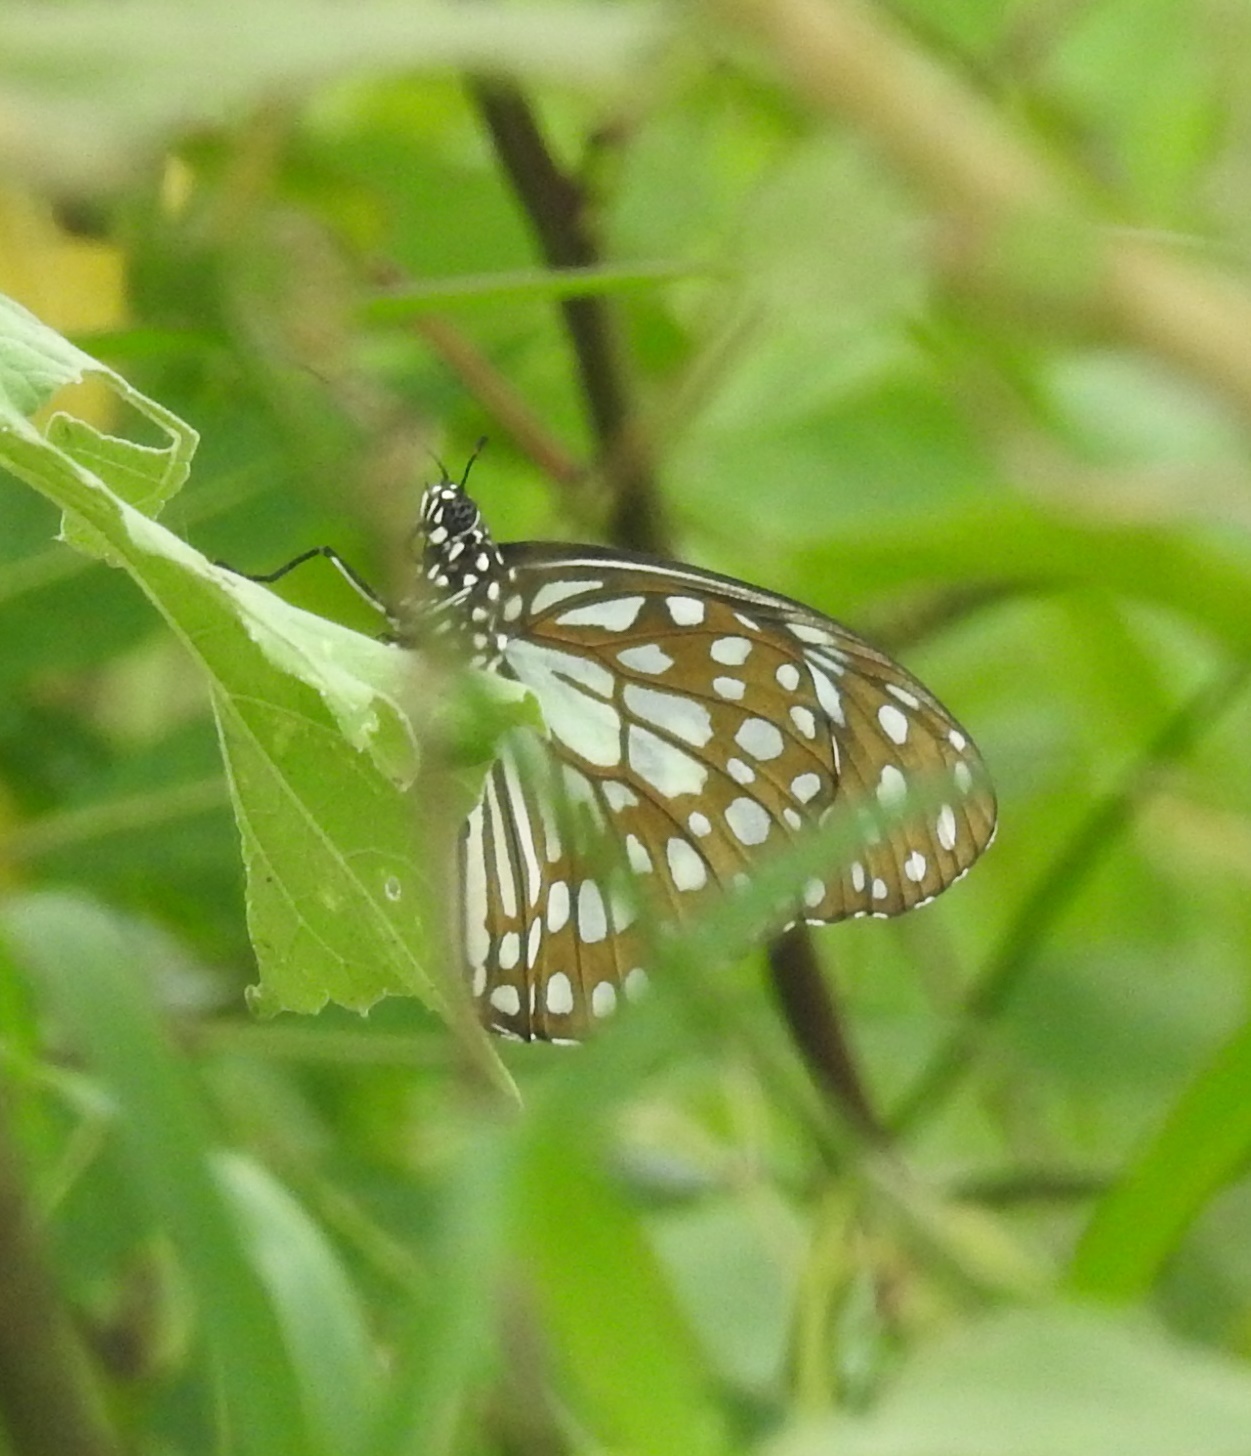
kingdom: Animalia
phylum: Arthropoda
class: Insecta
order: Lepidoptera
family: Nymphalidae
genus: Tirumala
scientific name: Tirumala limniace
